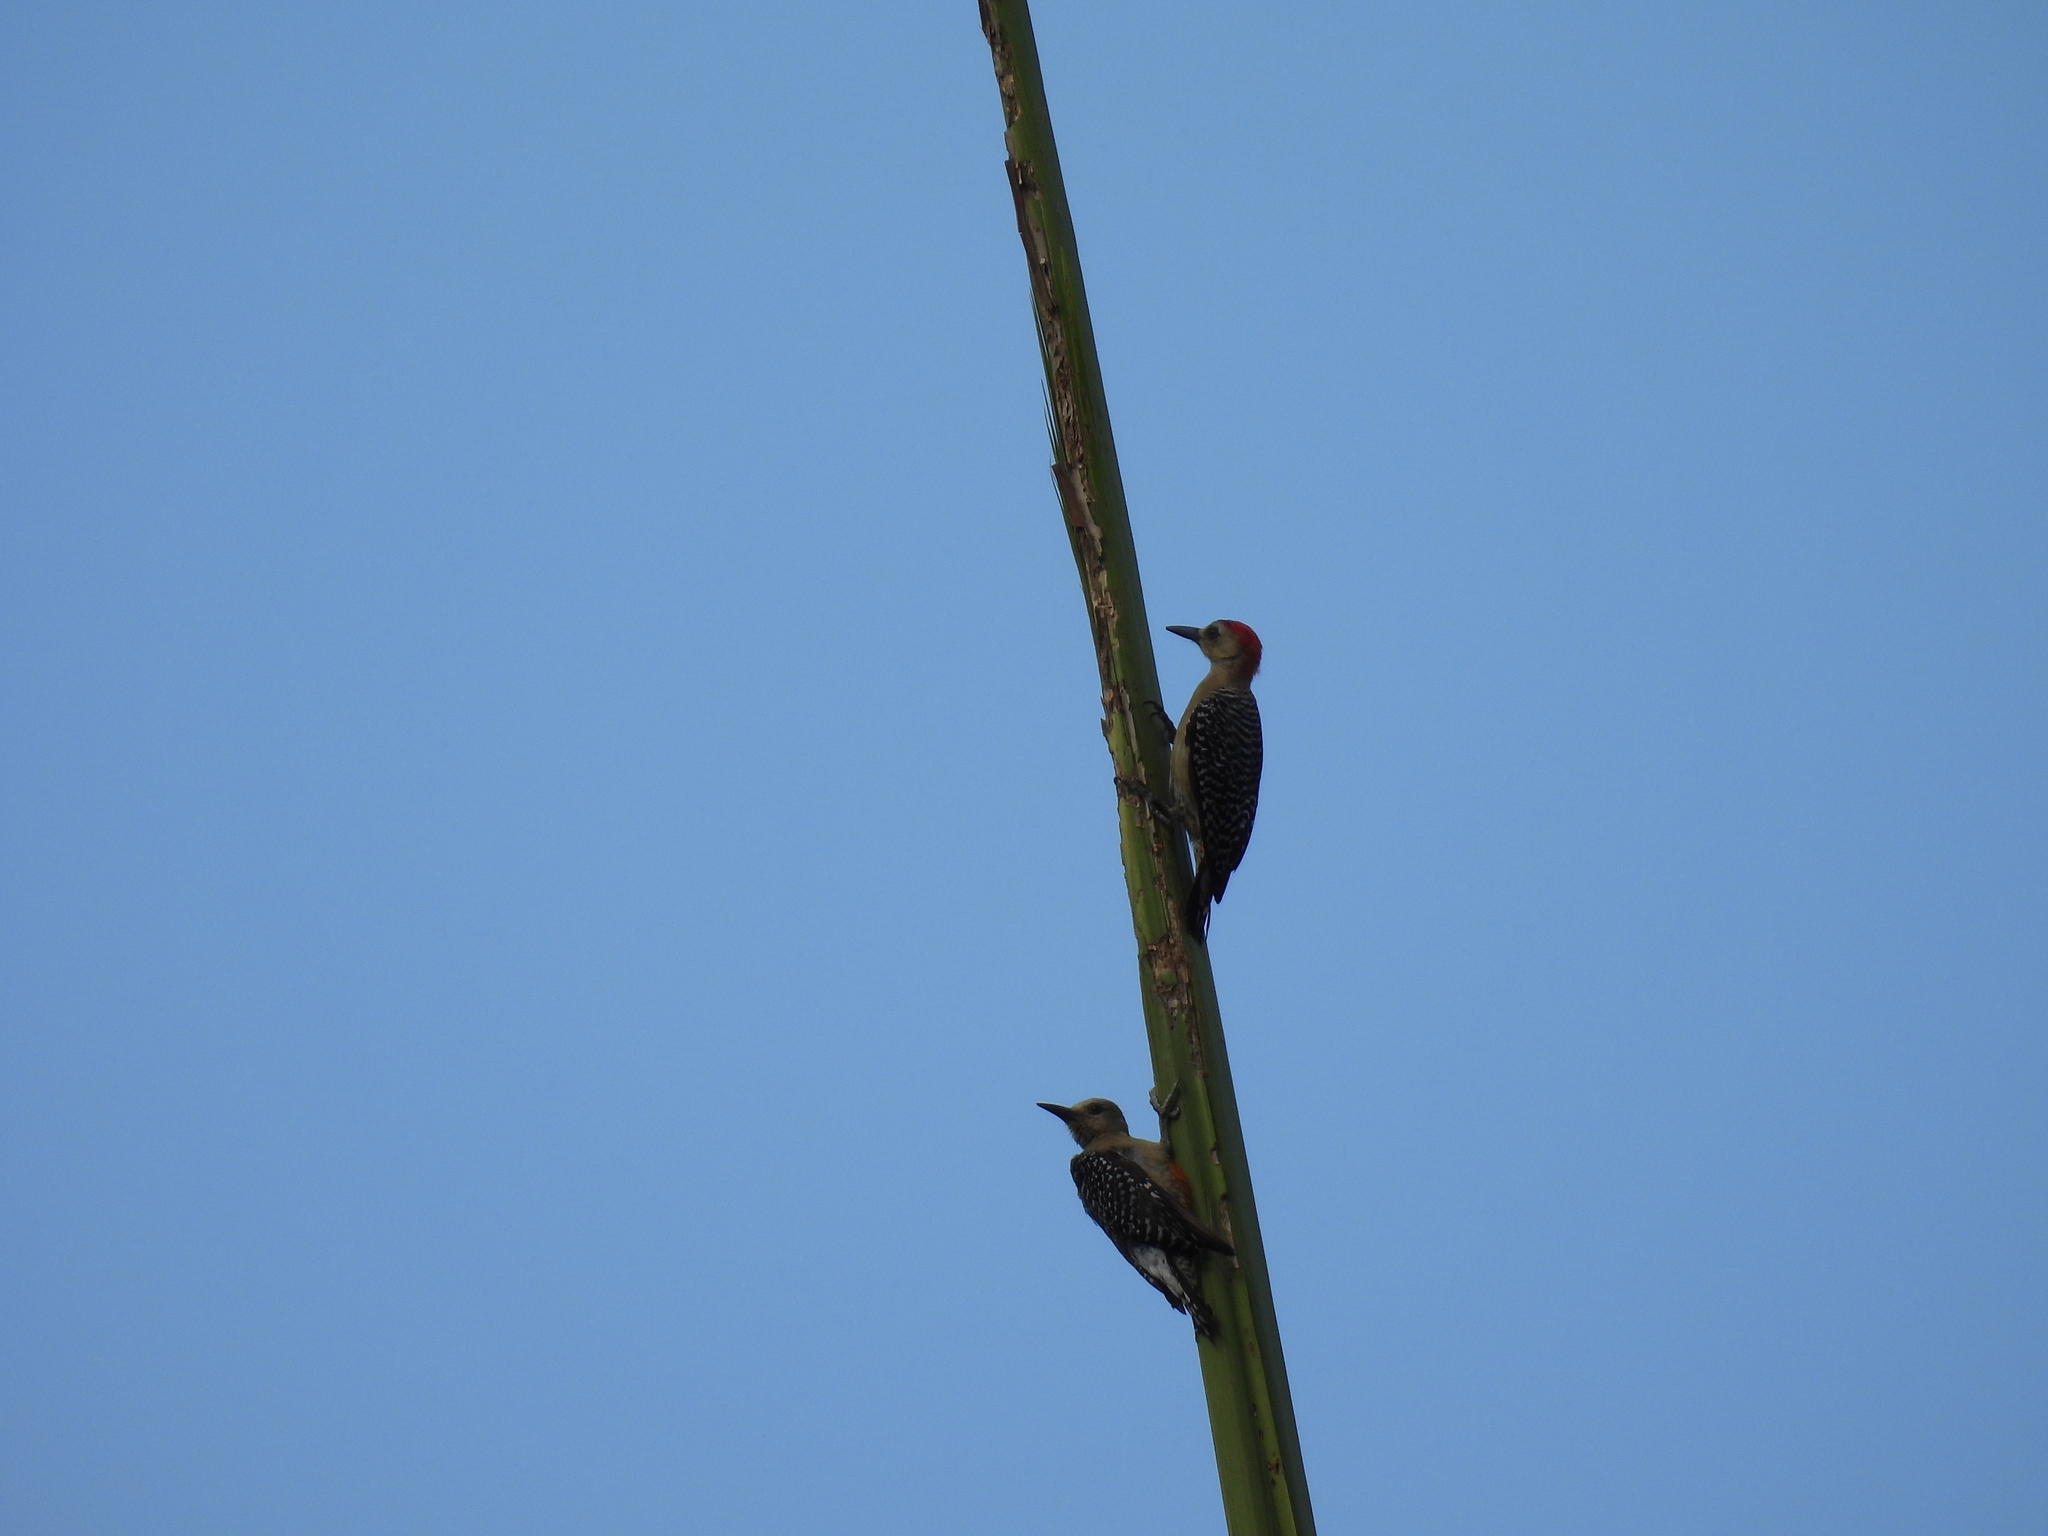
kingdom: Animalia
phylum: Chordata
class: Aves
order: Piciformes
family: Picidae
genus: Melanerpes
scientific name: Melanerpes rubricapillus
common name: Red-crowned woodpecker
